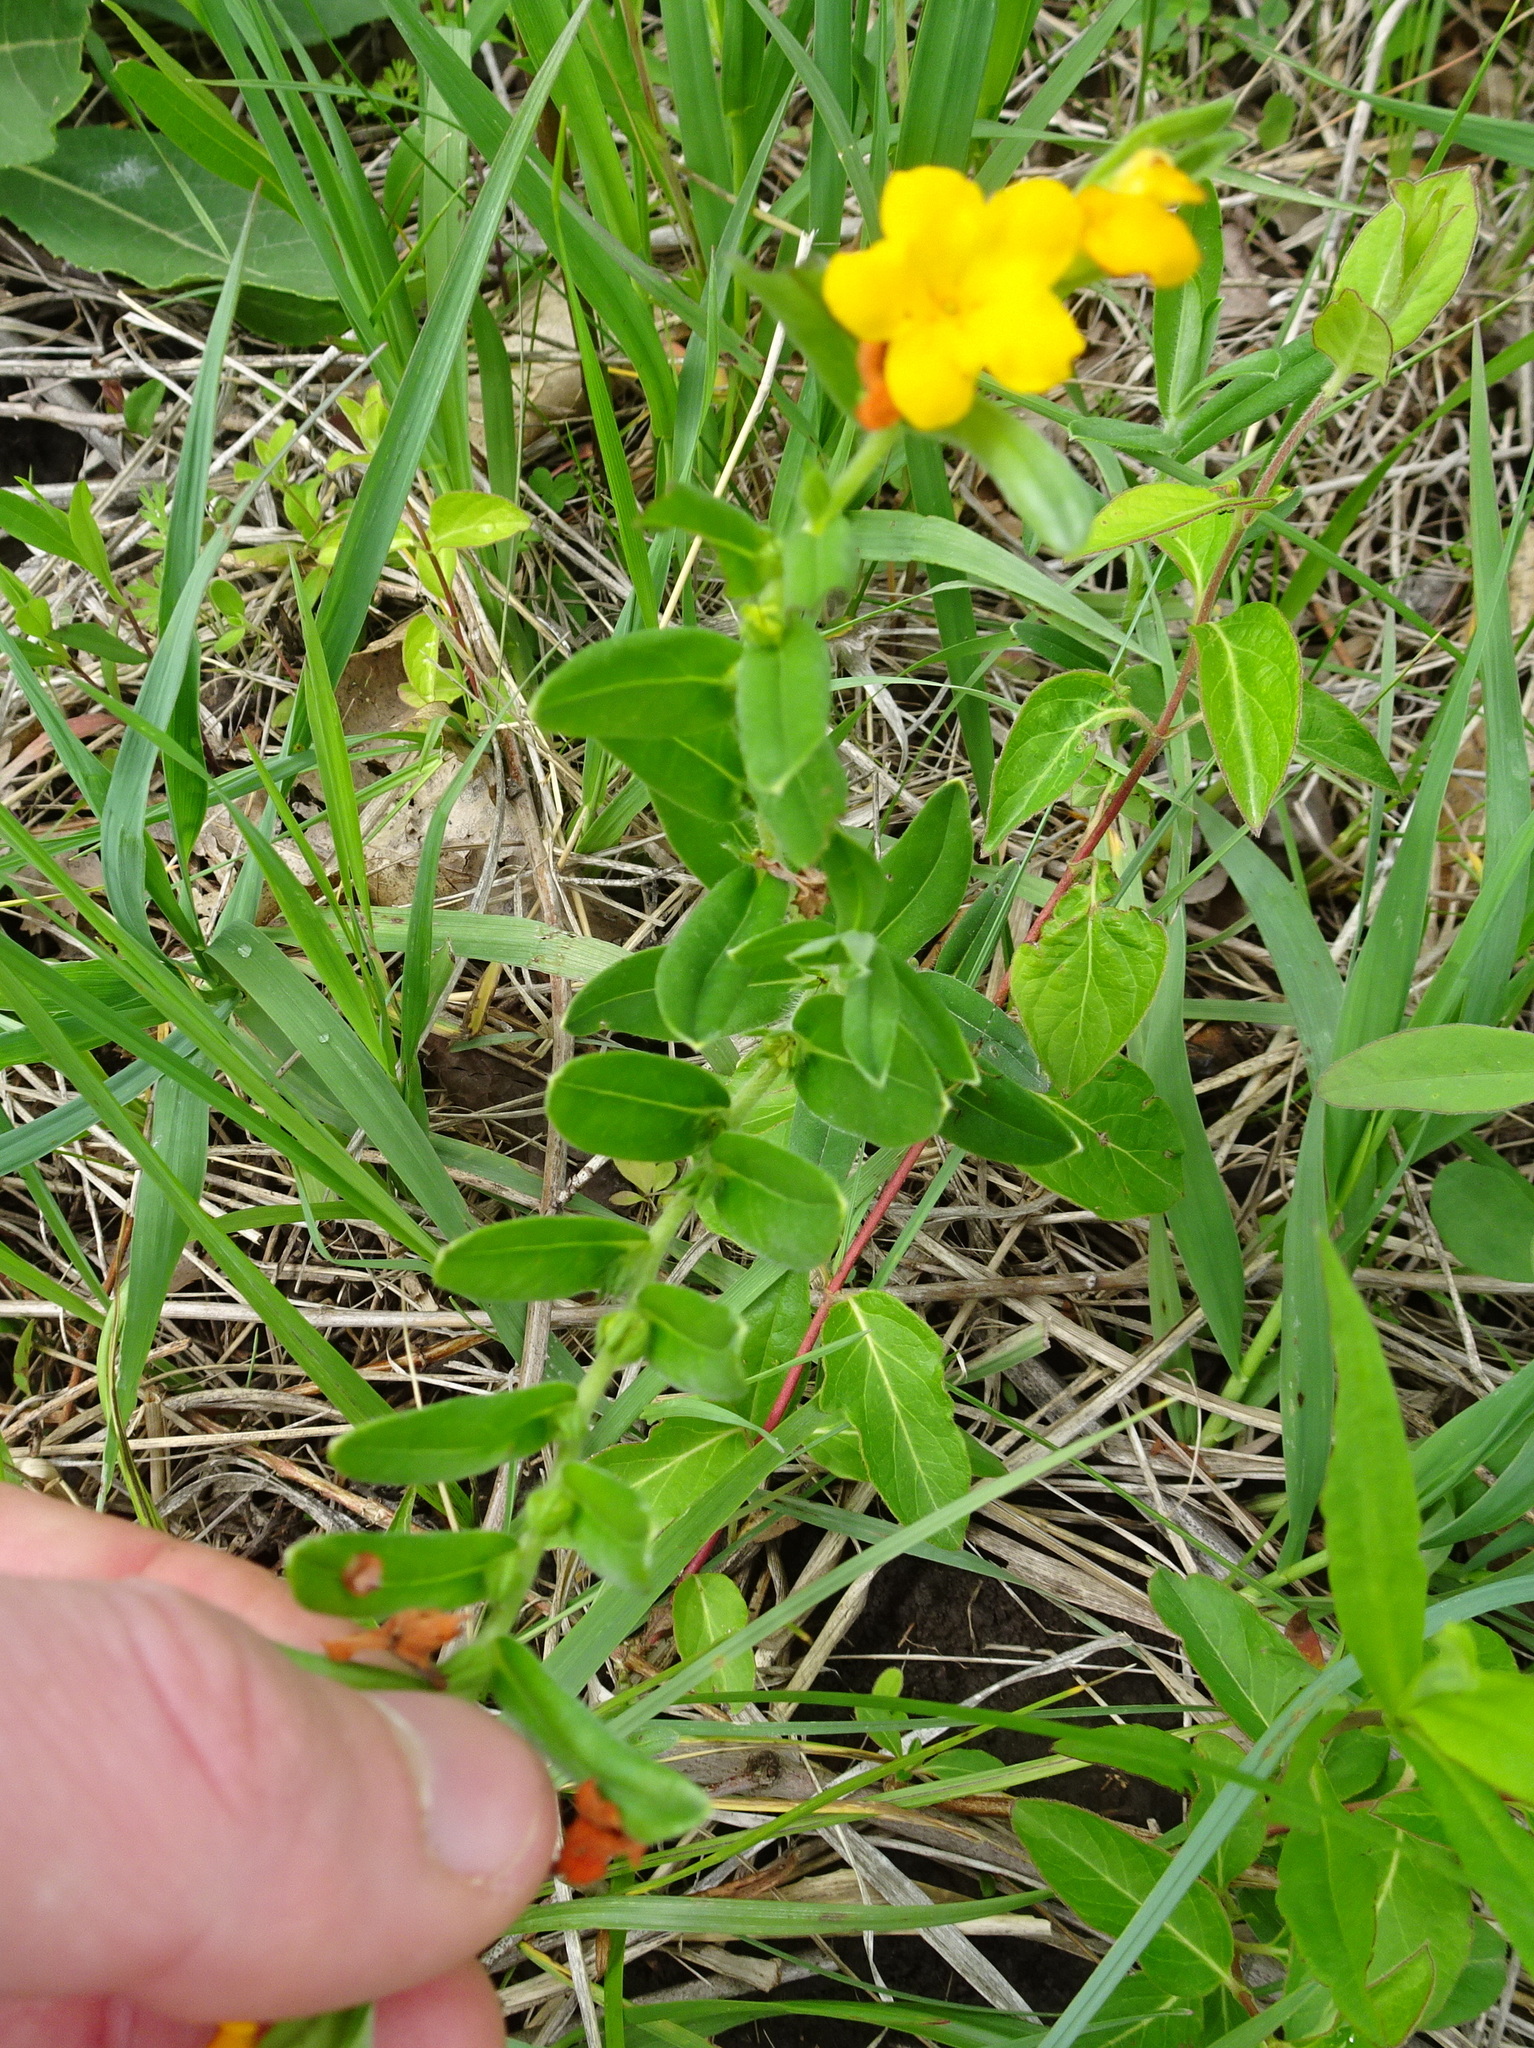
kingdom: Plantae
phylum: Tracheophyta
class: Magnoliopsida
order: Boraginales
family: Boraginaceae
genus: Lithospermum
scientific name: Lithospermum canescens
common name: Hoary puccoon
